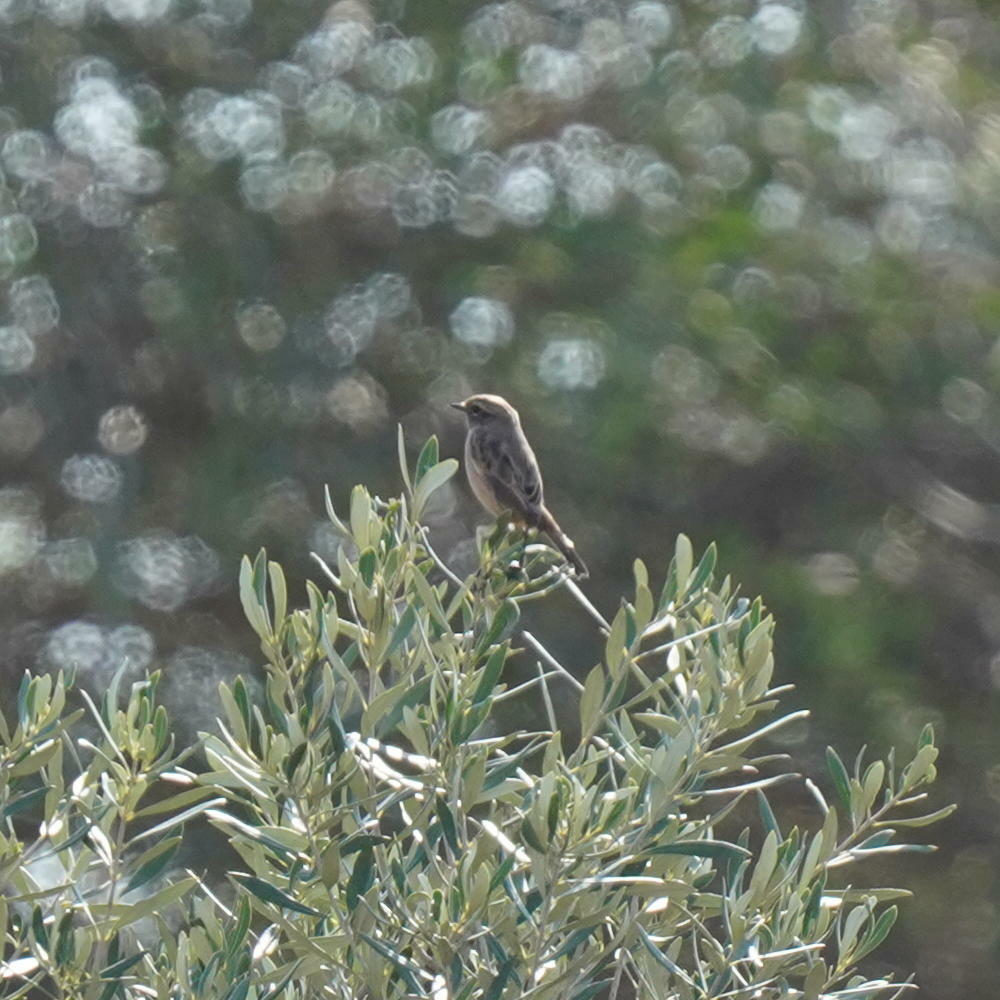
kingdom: Animalia
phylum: Chordata
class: Aves
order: Passeriformes
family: Muscicapidae
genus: Saxicola
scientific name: Saxicola rubicola
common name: European stonechat
